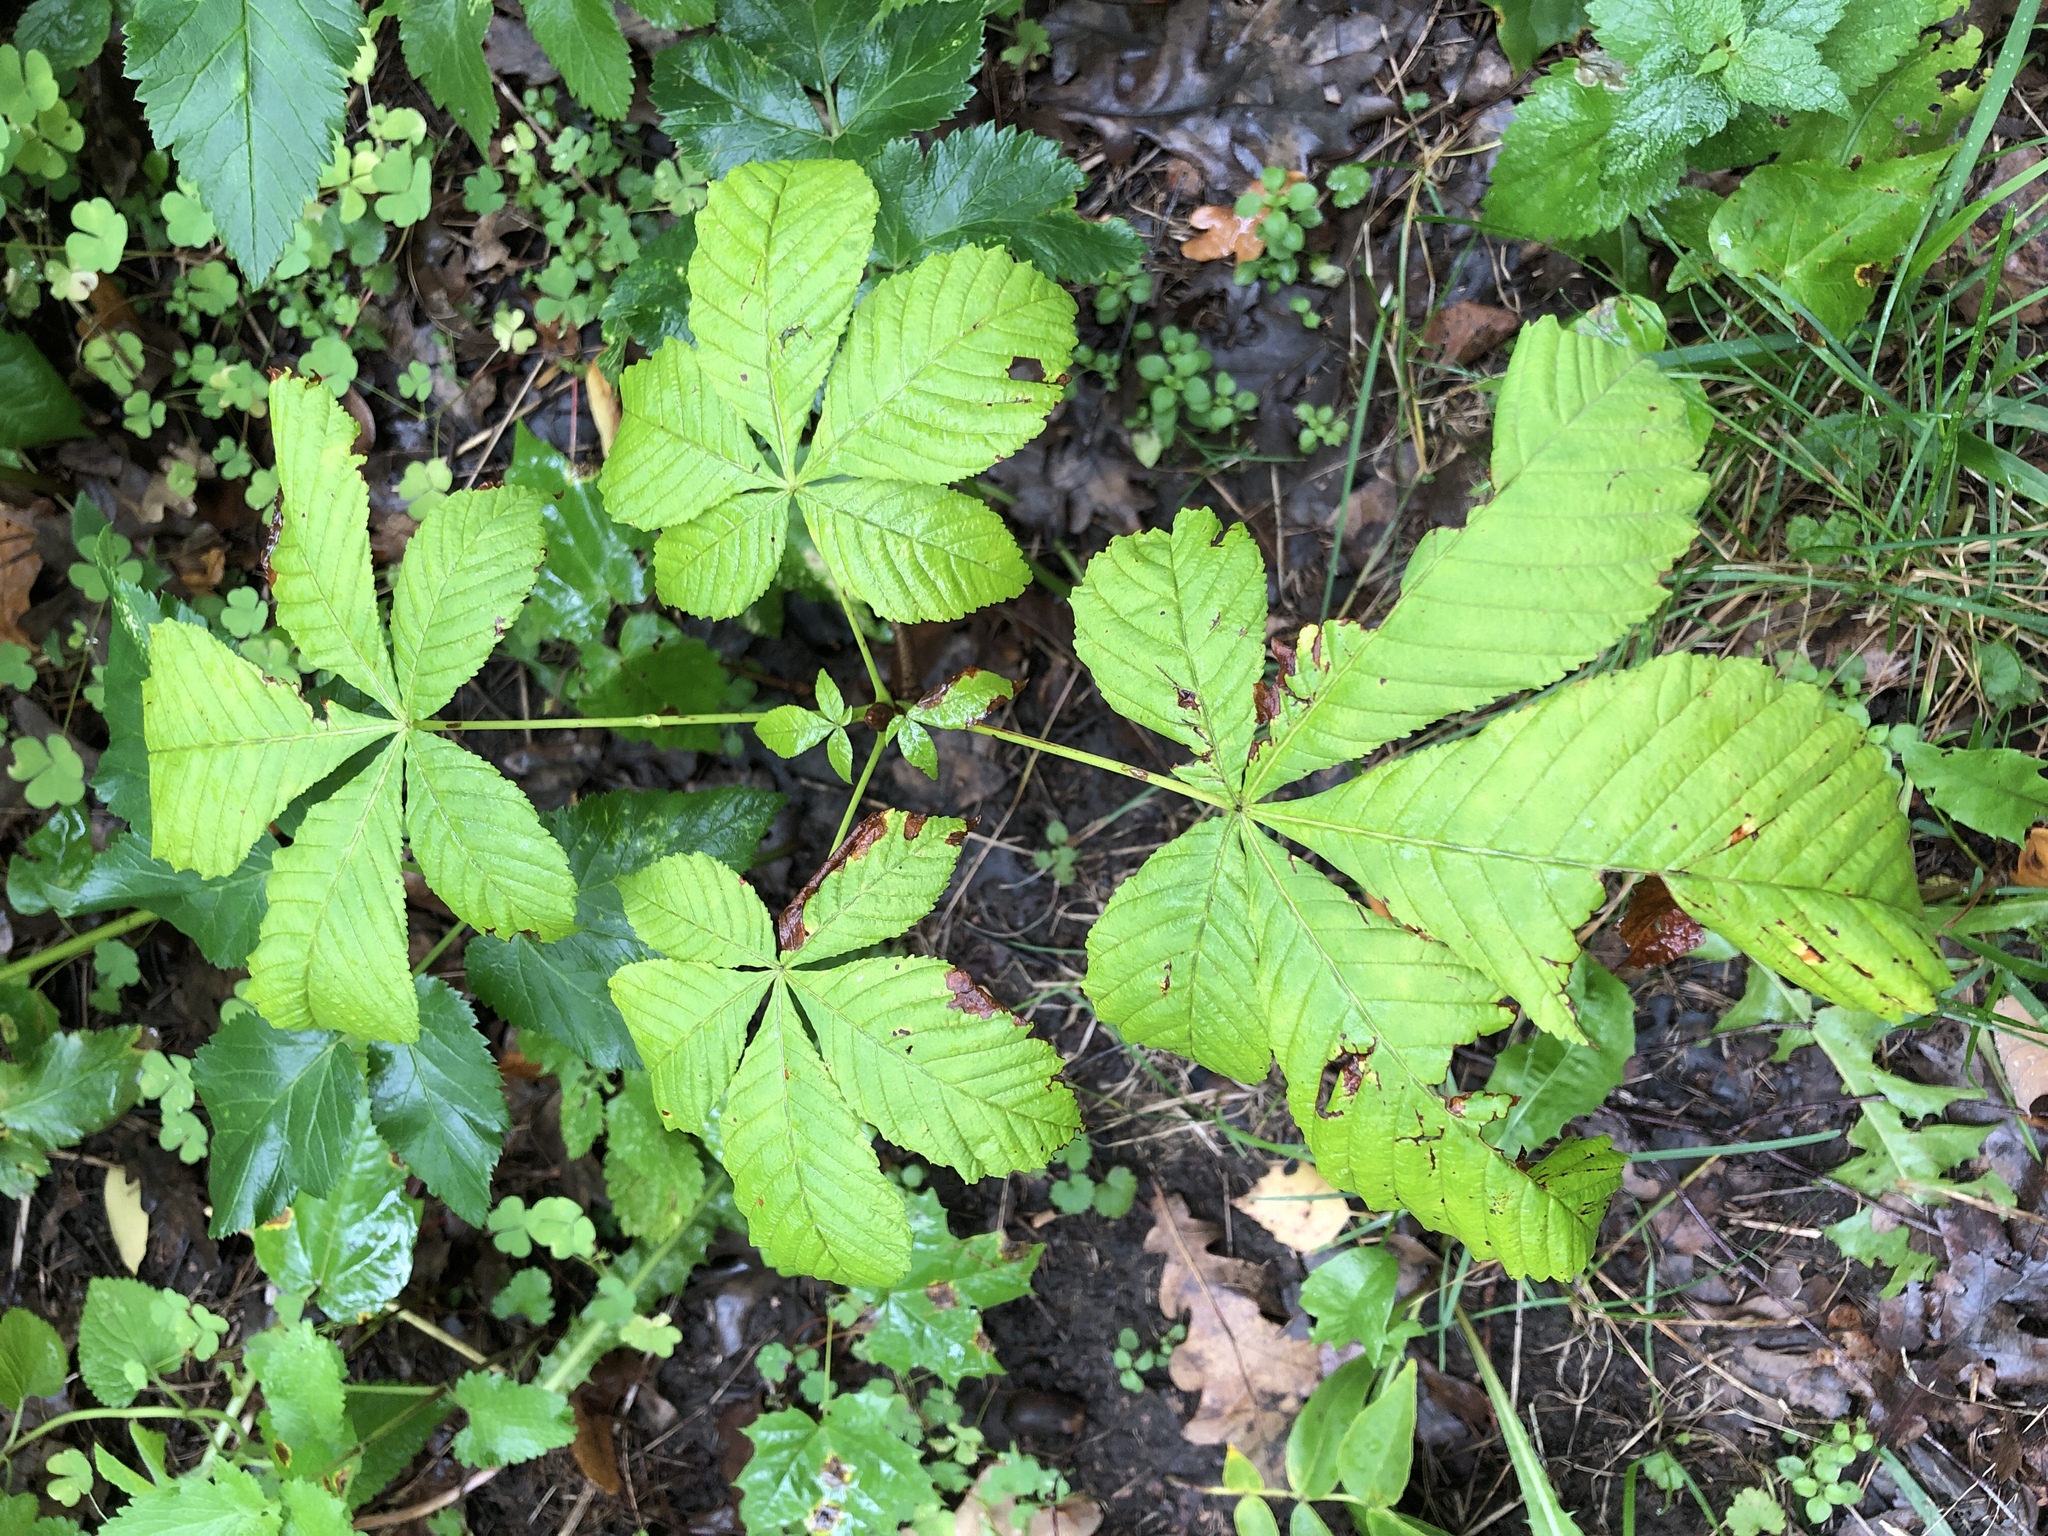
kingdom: Plantae
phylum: Tracheophyta
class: Magnoliopsida
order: Sapindales
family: Sapindaceae
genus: Aesculus
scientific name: Aesculus hippocastanum
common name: Horse-chestnut
